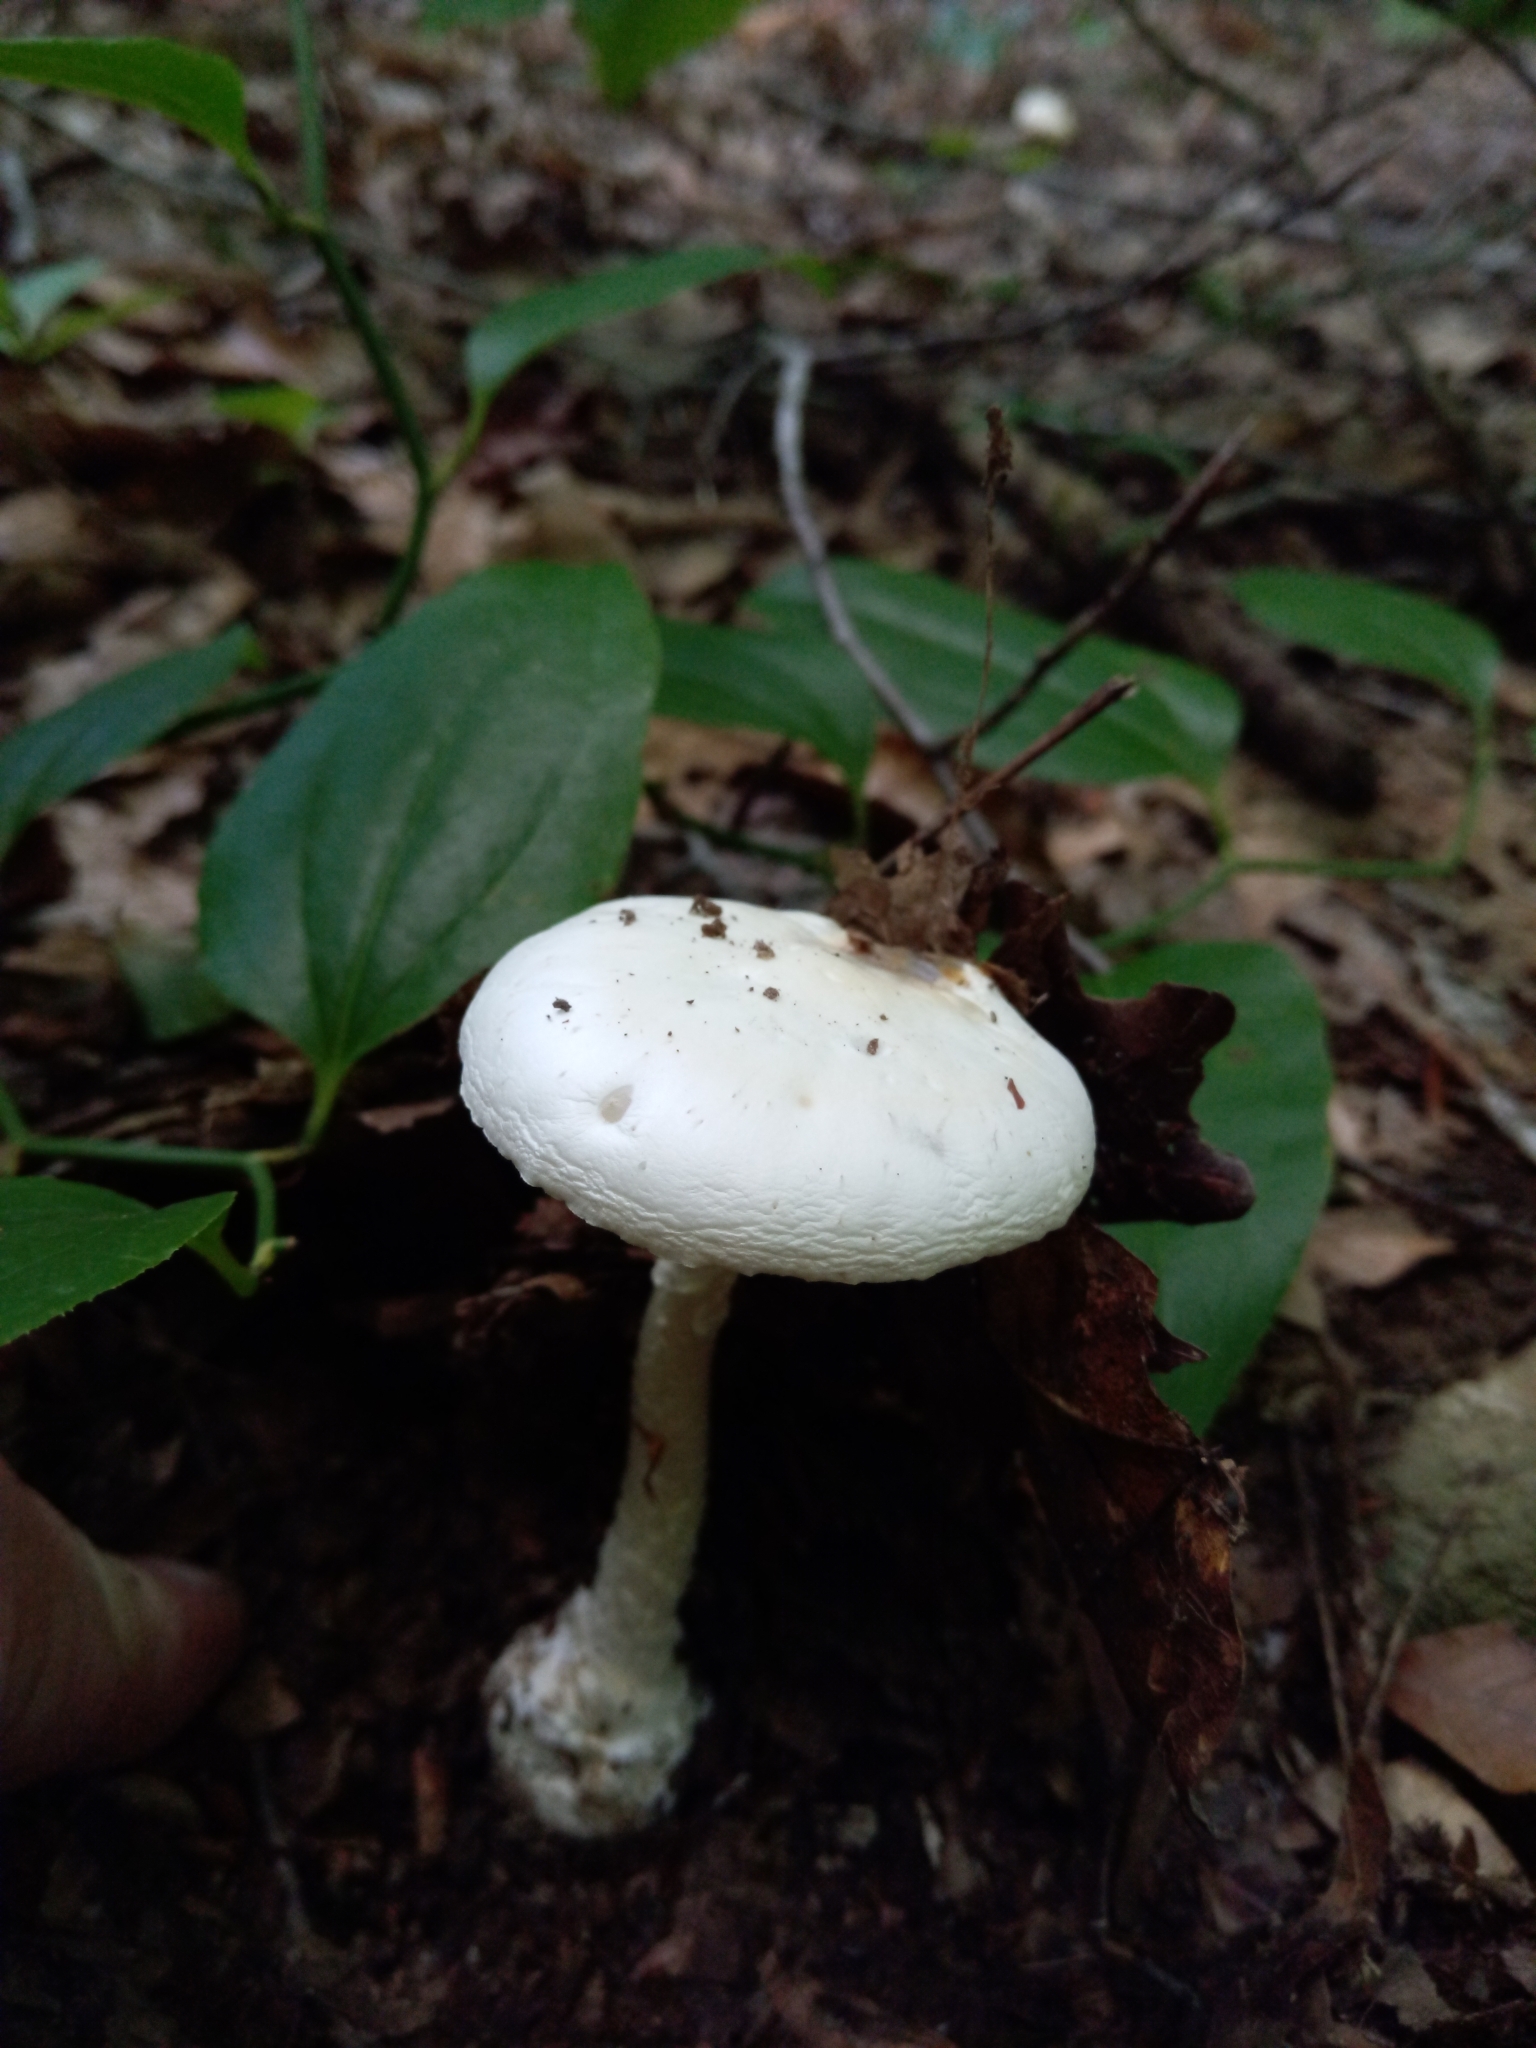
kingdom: Fungi
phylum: Basidiomycota
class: Agaricomycetes
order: Agaricales
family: Amanitaceae
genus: Amanita
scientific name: Amanita bisporigera
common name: Eastern north american destroying angel
